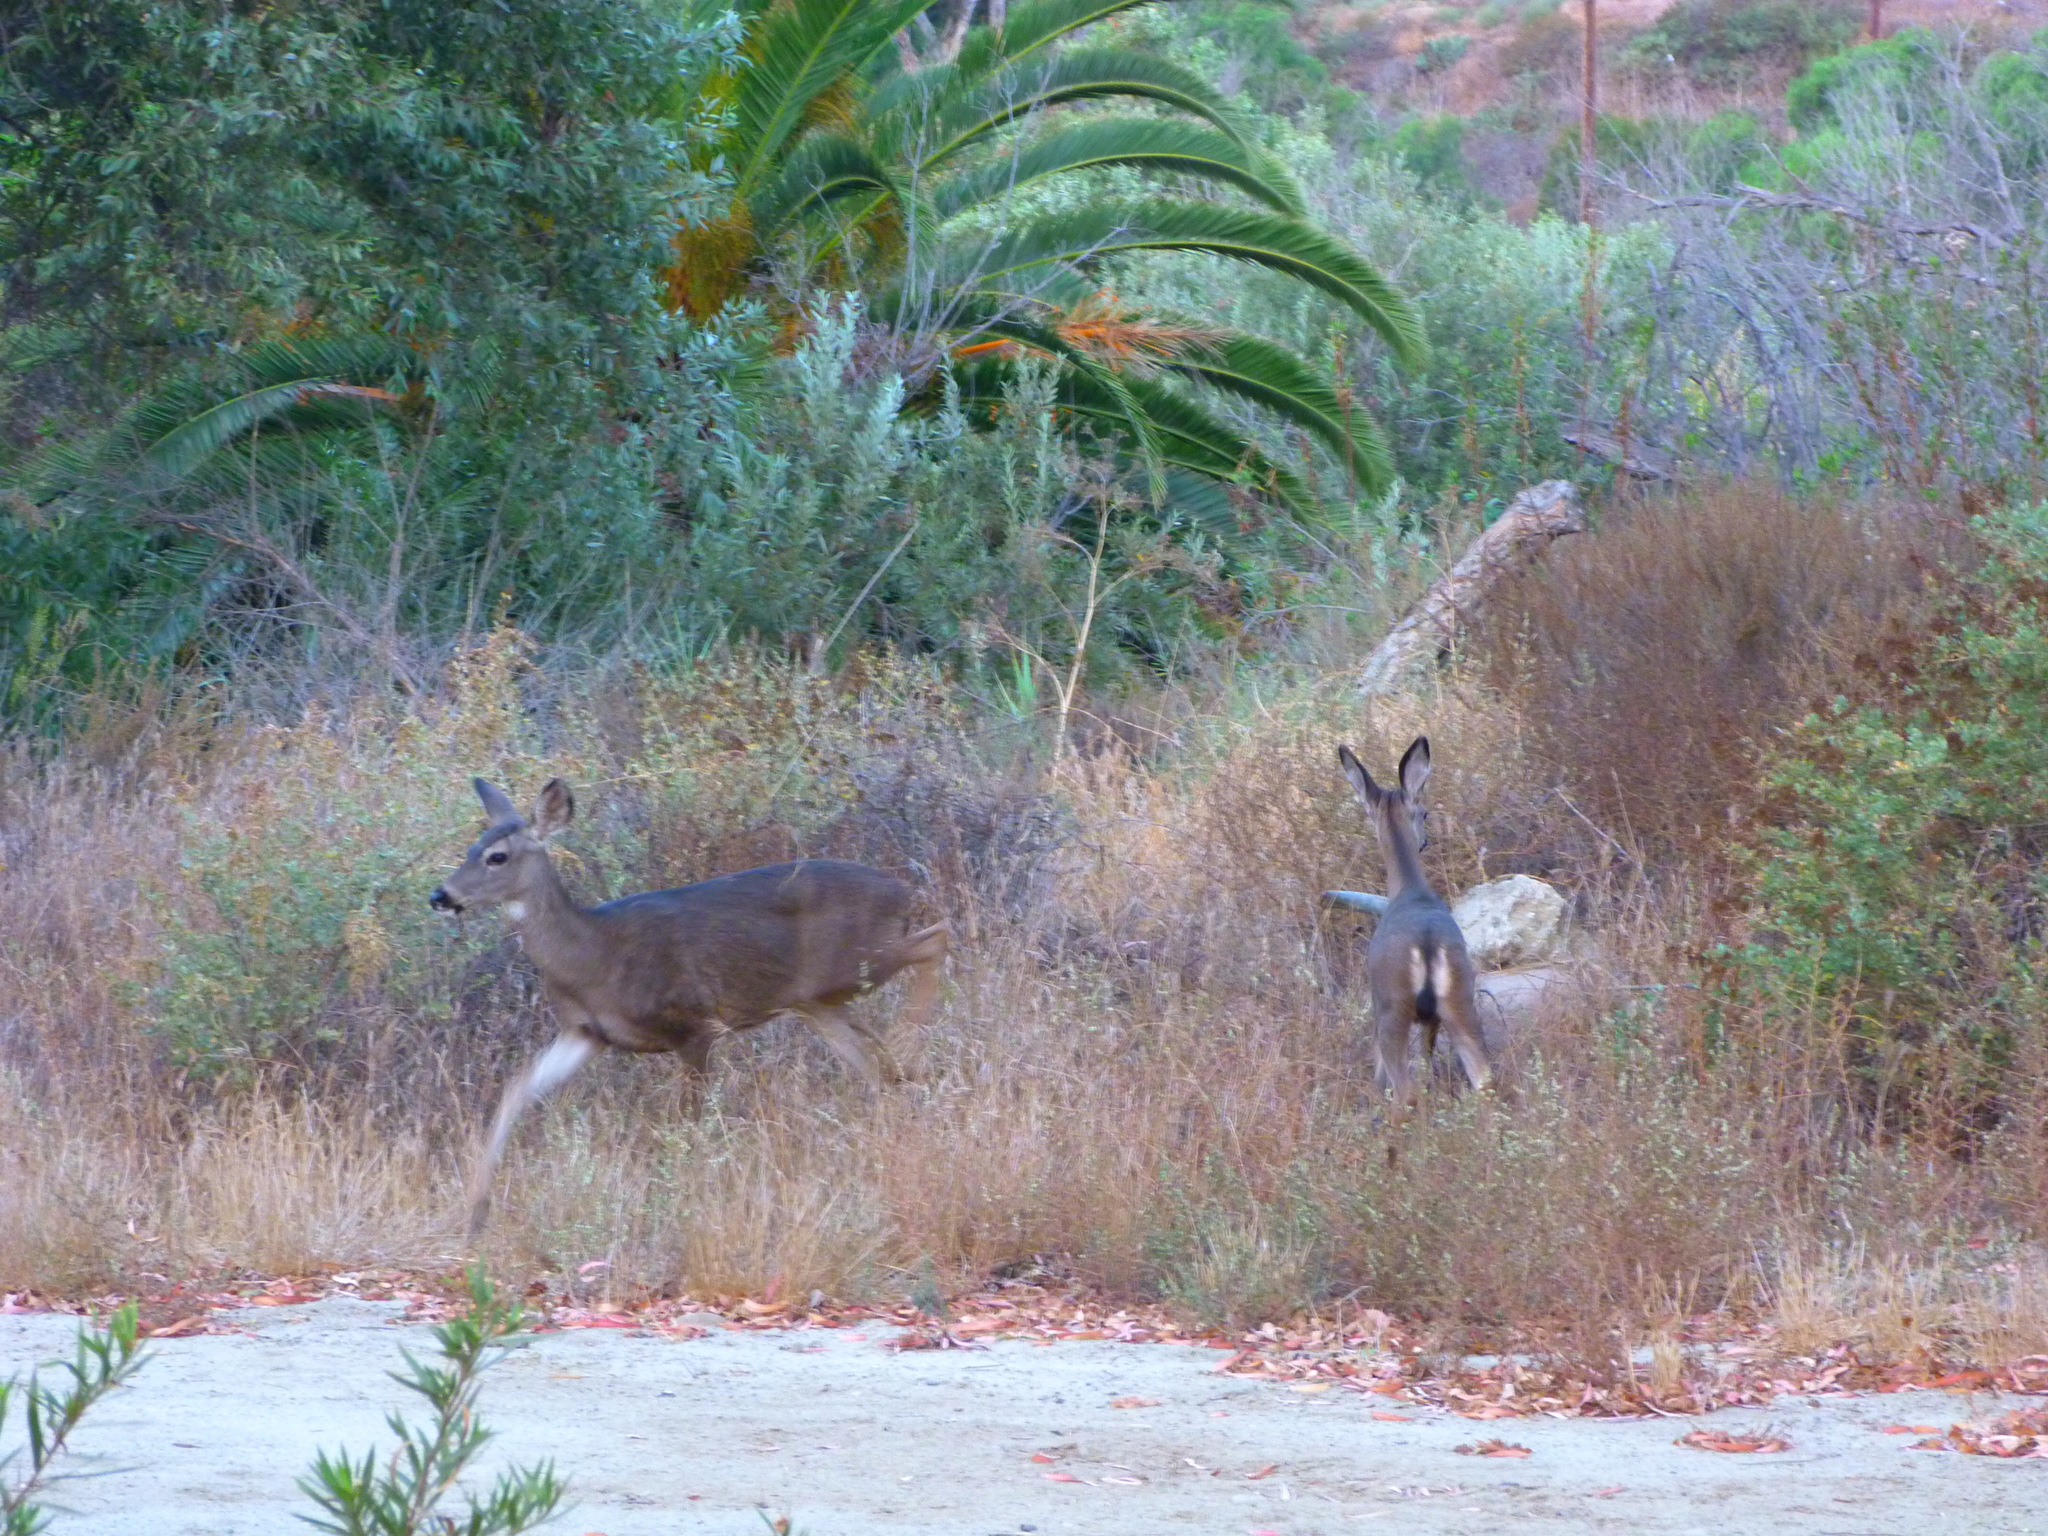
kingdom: Animalia
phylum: Chordata
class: Mammalia
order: Artiodactyla
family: Cervidae
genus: Odocoileus
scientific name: Odocoileus hemionus
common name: Mule deer
